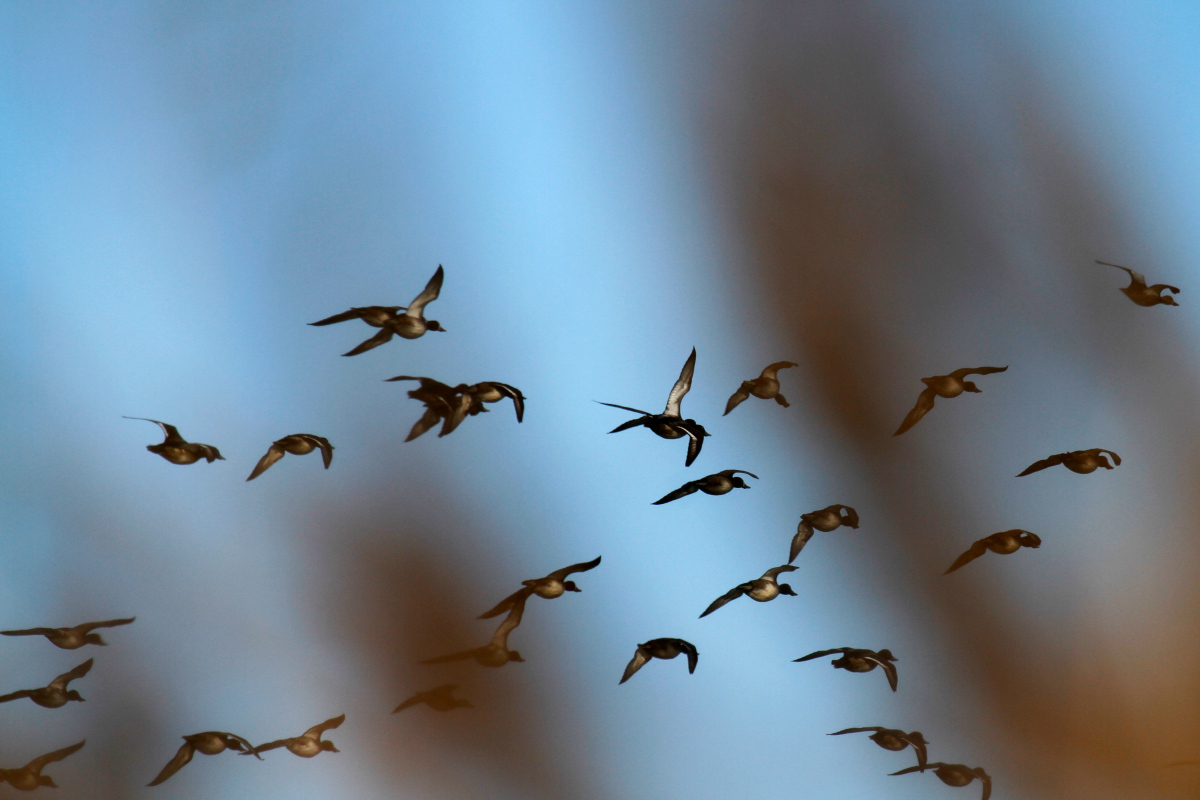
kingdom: Animalia
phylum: Chordata
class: Aves
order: Anseriformes
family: Anatidae
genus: Aythya
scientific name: Aythya affinis
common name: Lesser scaup
